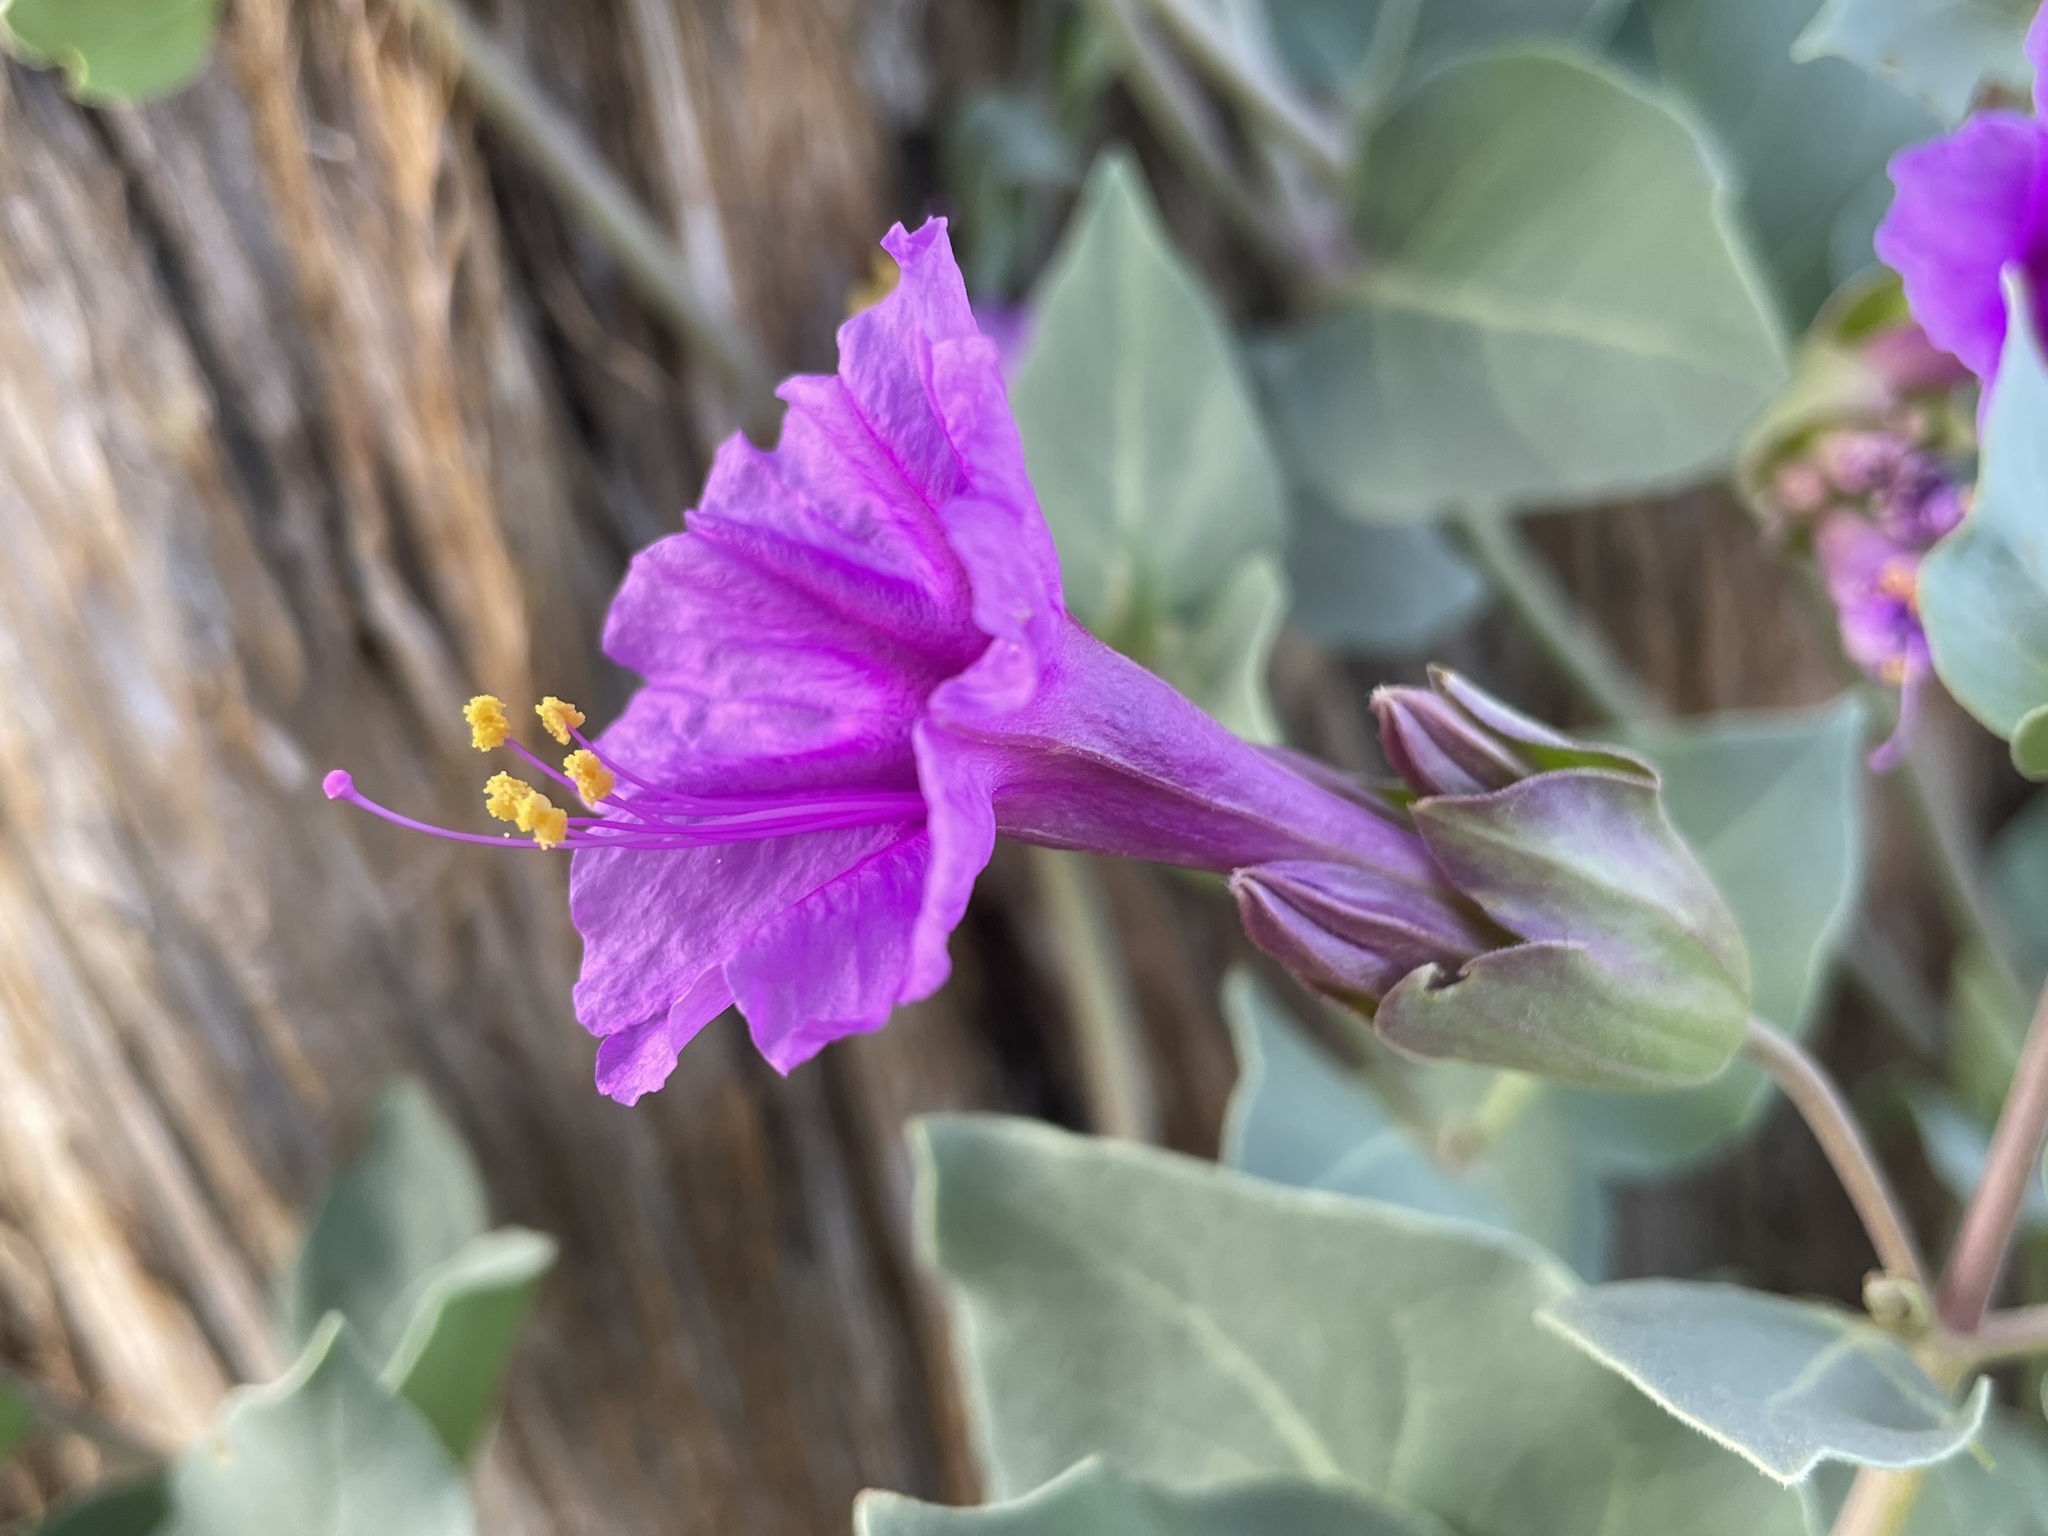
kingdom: Plantae
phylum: Tracheophyta
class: Magnoliopsida
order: Caryophyllales
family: Nyctaginaceae
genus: Mirabilis
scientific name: Mirabilis multiflora
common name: Froebel's four-o'clock
